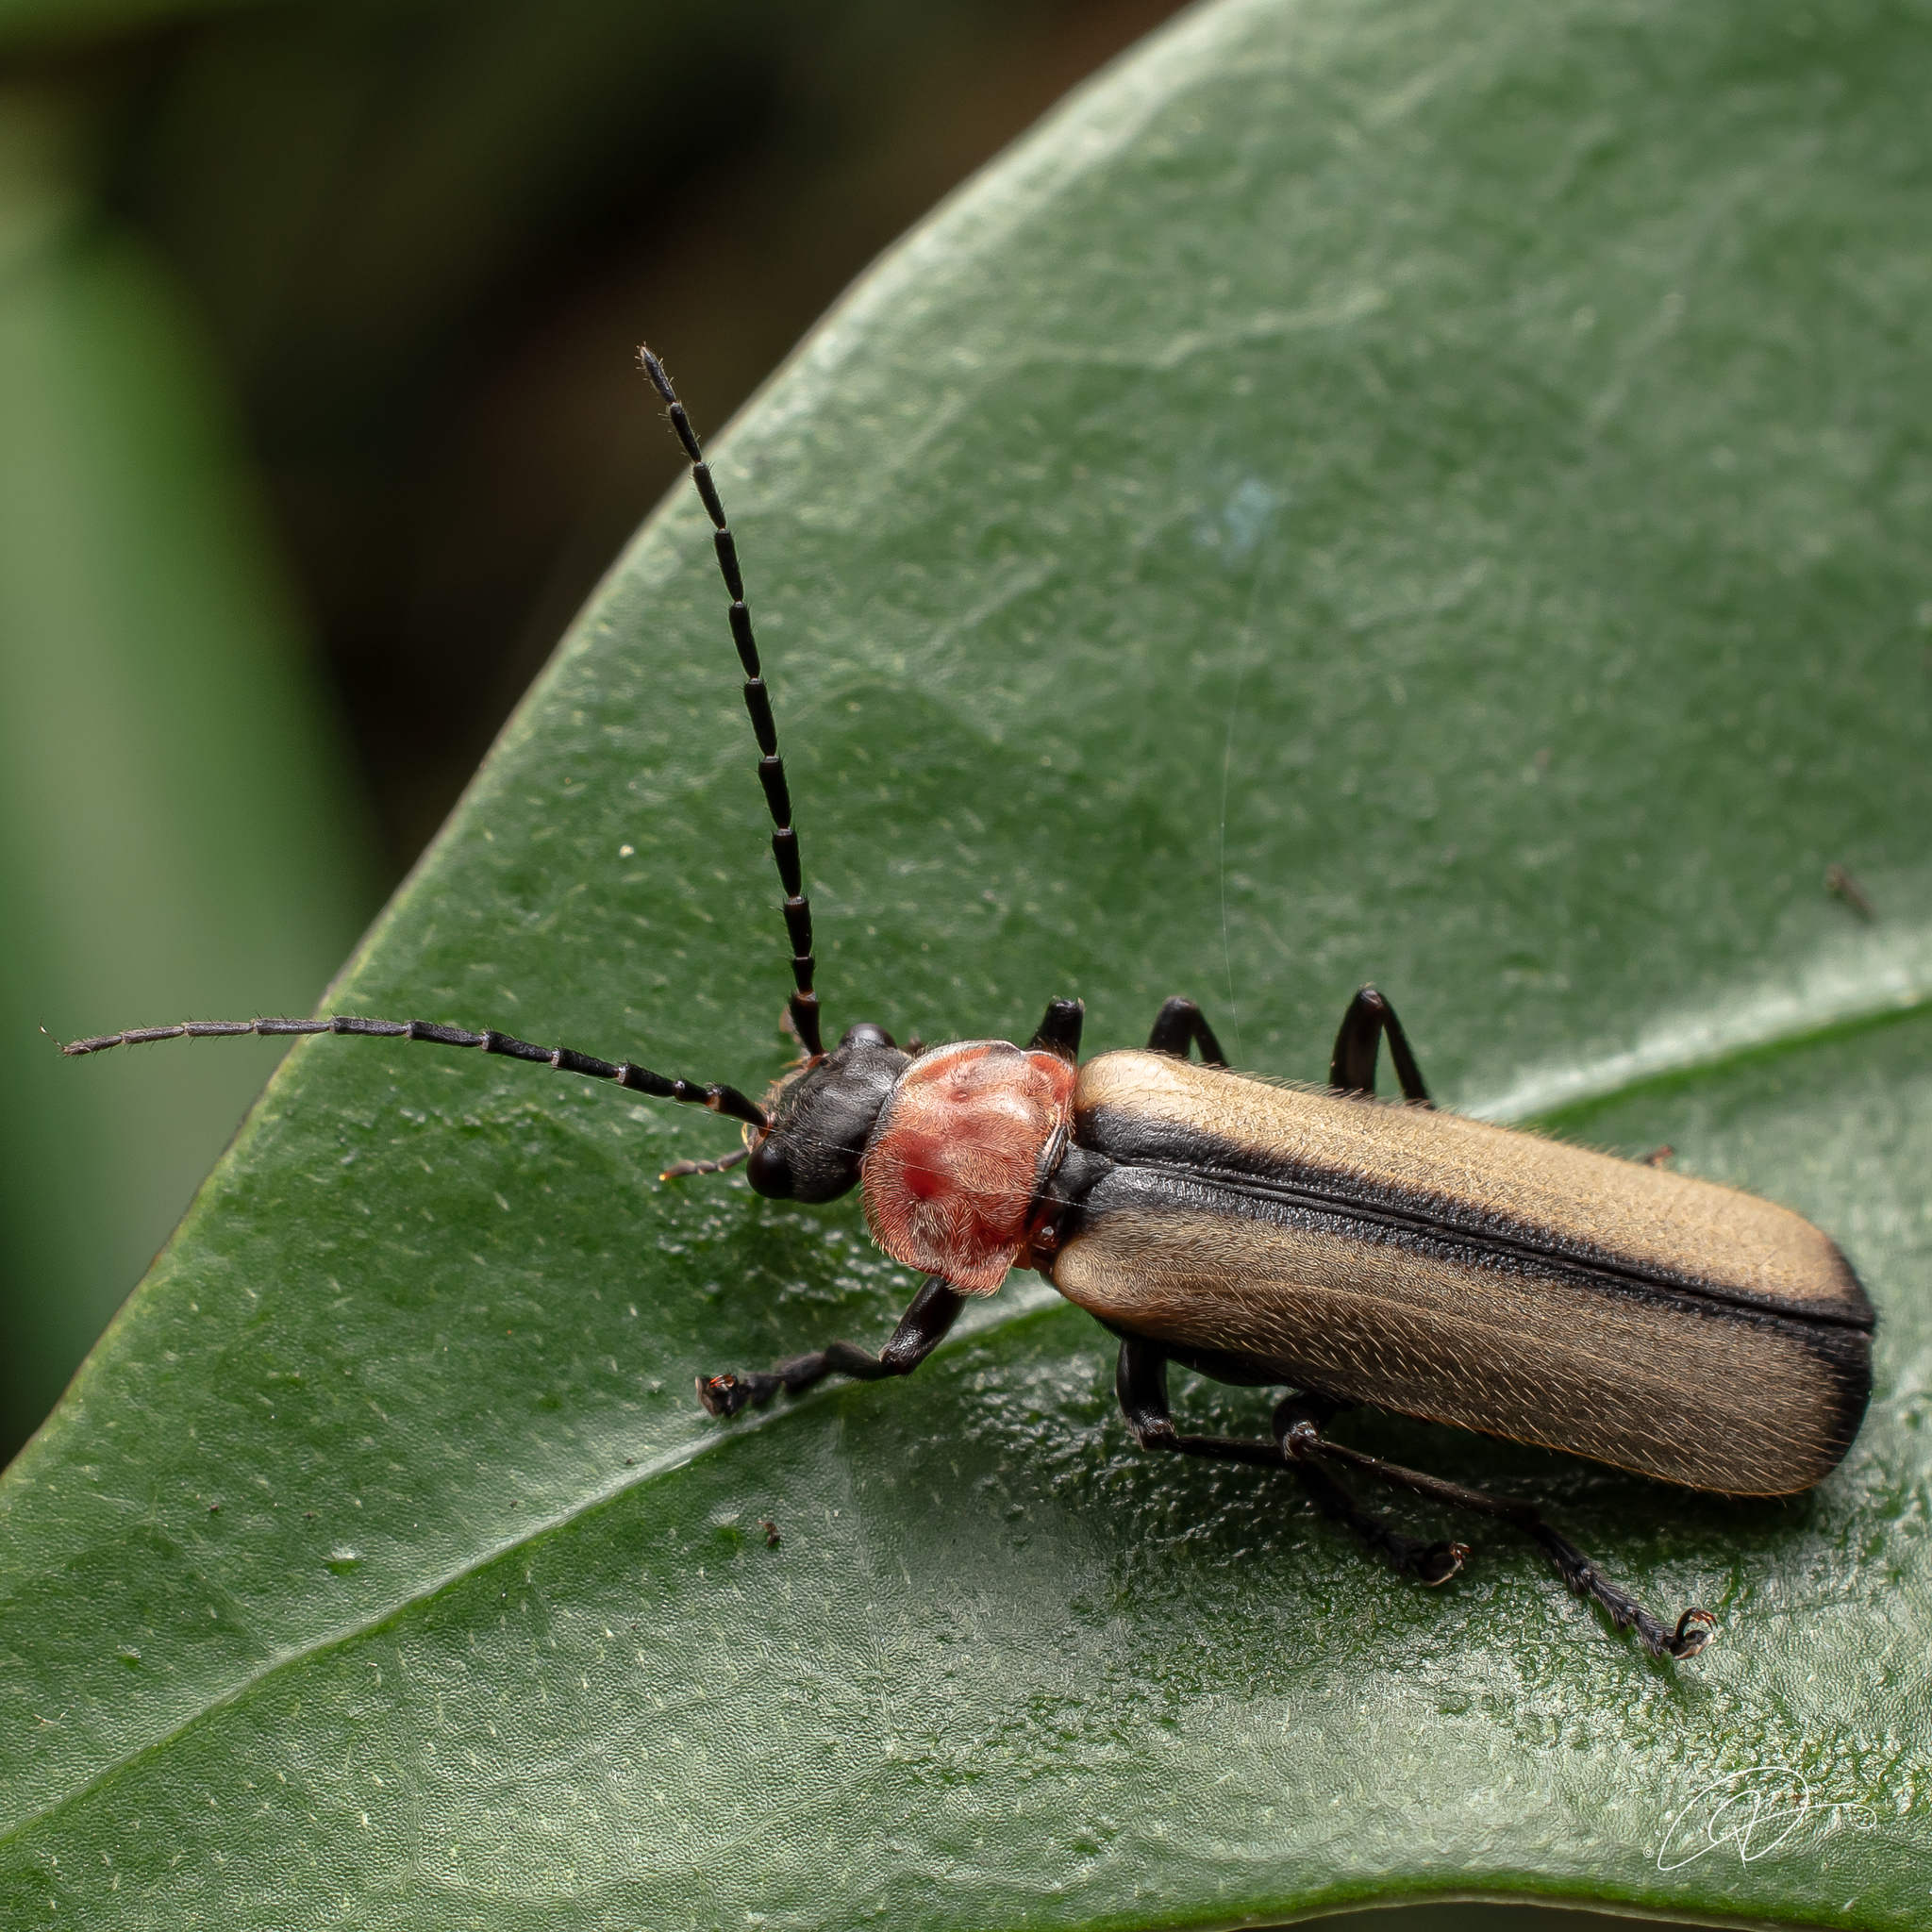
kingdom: Animalia
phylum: Arthropoda
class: Insecta
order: Coleoptera
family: Cantharidae
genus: Discodon
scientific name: Discodon
